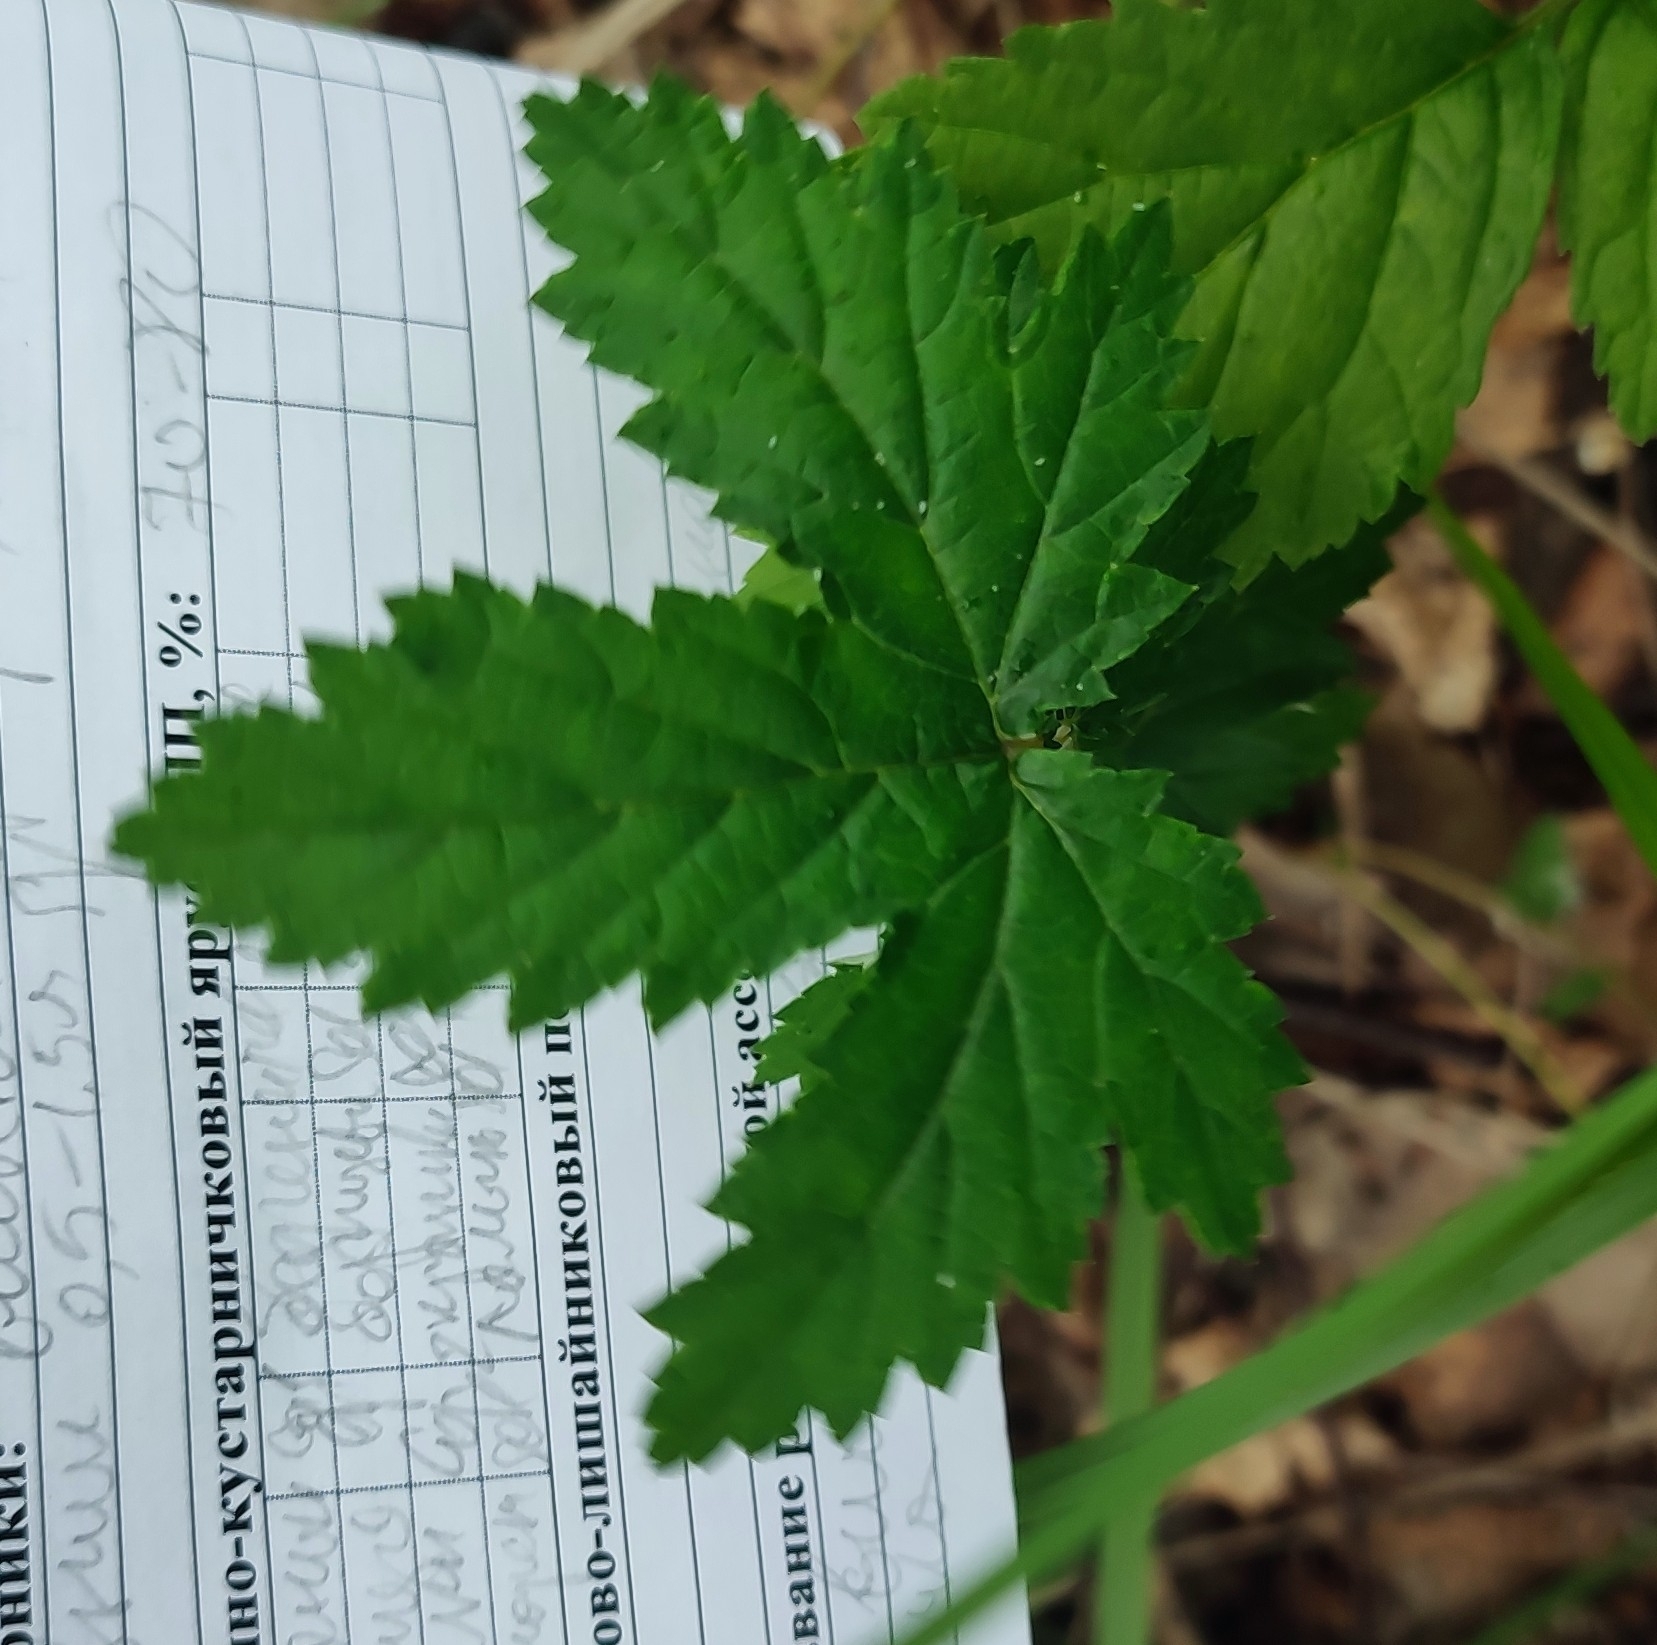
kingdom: Plantae
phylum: Tracheophyta
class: Magnoliopsida
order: Rosales
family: Rosaceae
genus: Filipendula
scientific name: Filipendula ulmaria
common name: Meadowsweet
